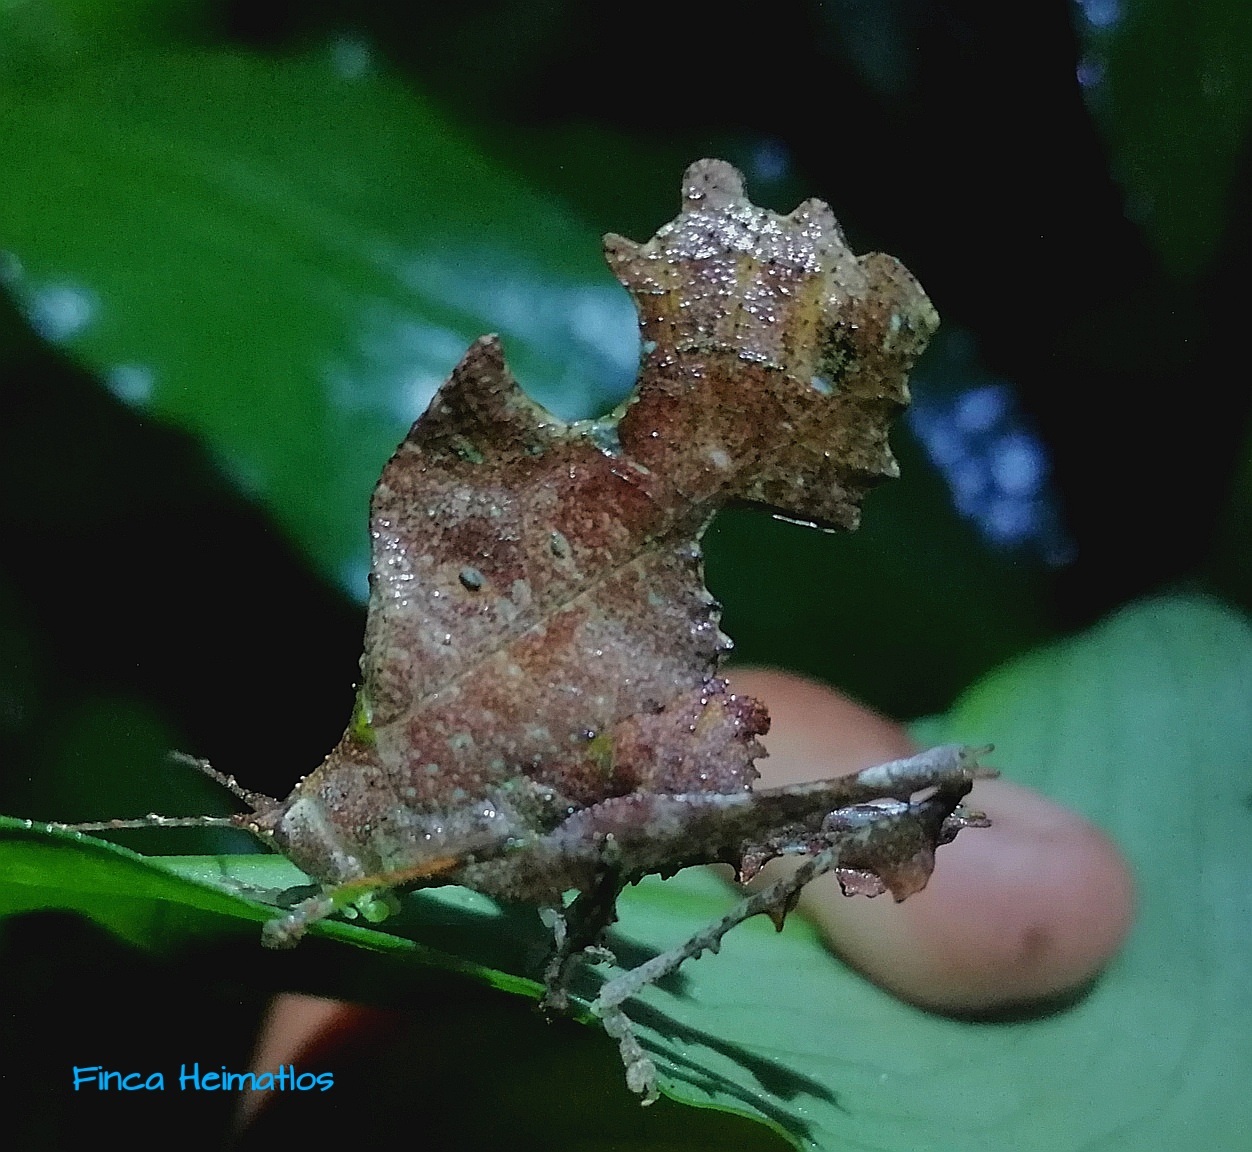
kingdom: Animalia
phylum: Arthropoda
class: Insecta
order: Orthoptera
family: Tettigoniidae
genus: Typophyllum
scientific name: Typophyllum bolivari
